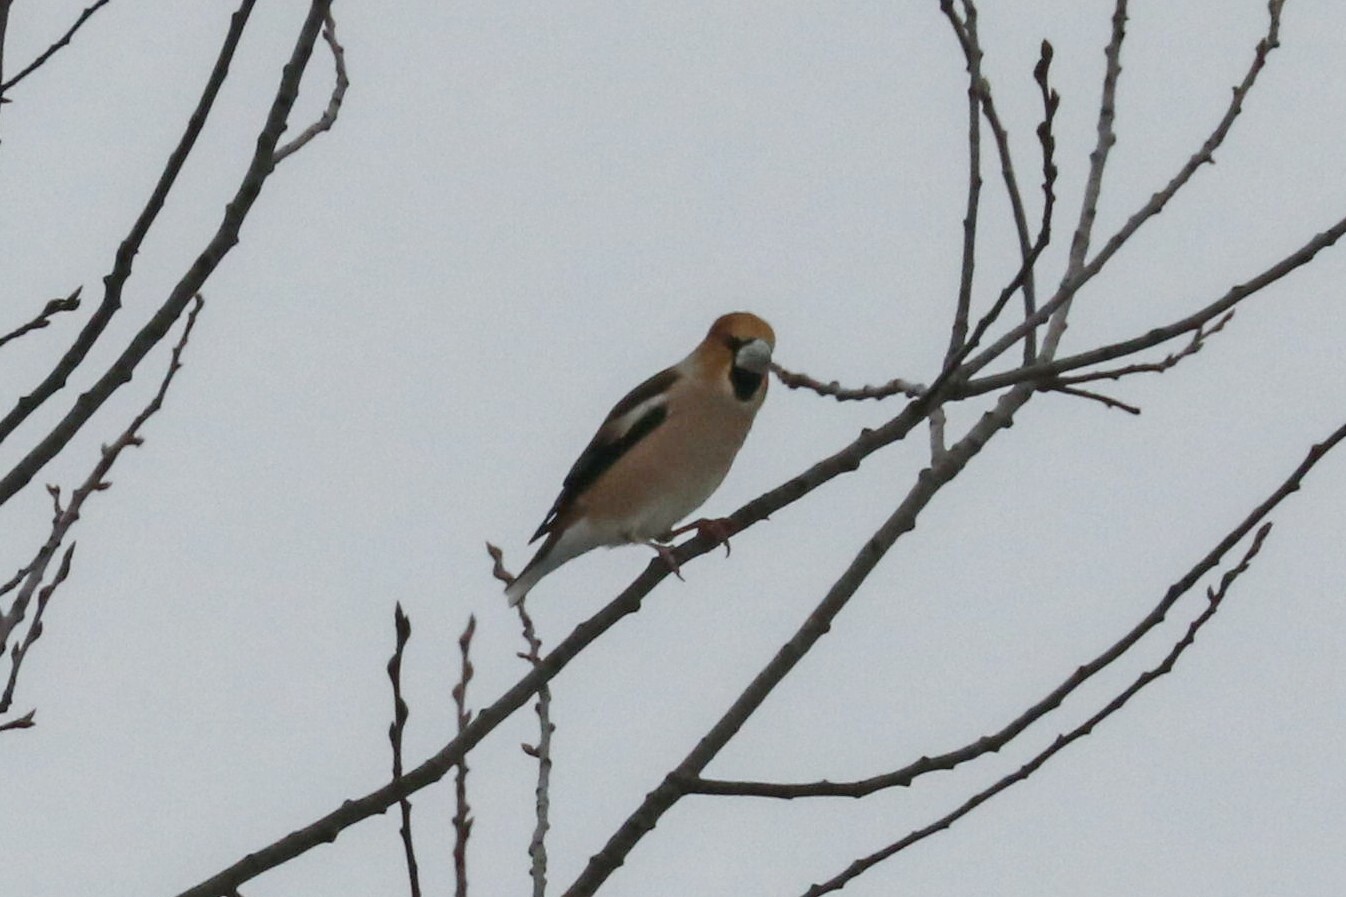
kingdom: Animalia
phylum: Chordata
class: Aves
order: Passeriformes
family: Fringillidae
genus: Coccothraustes
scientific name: Coccothraustes coccothraustes
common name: Hawfinch
